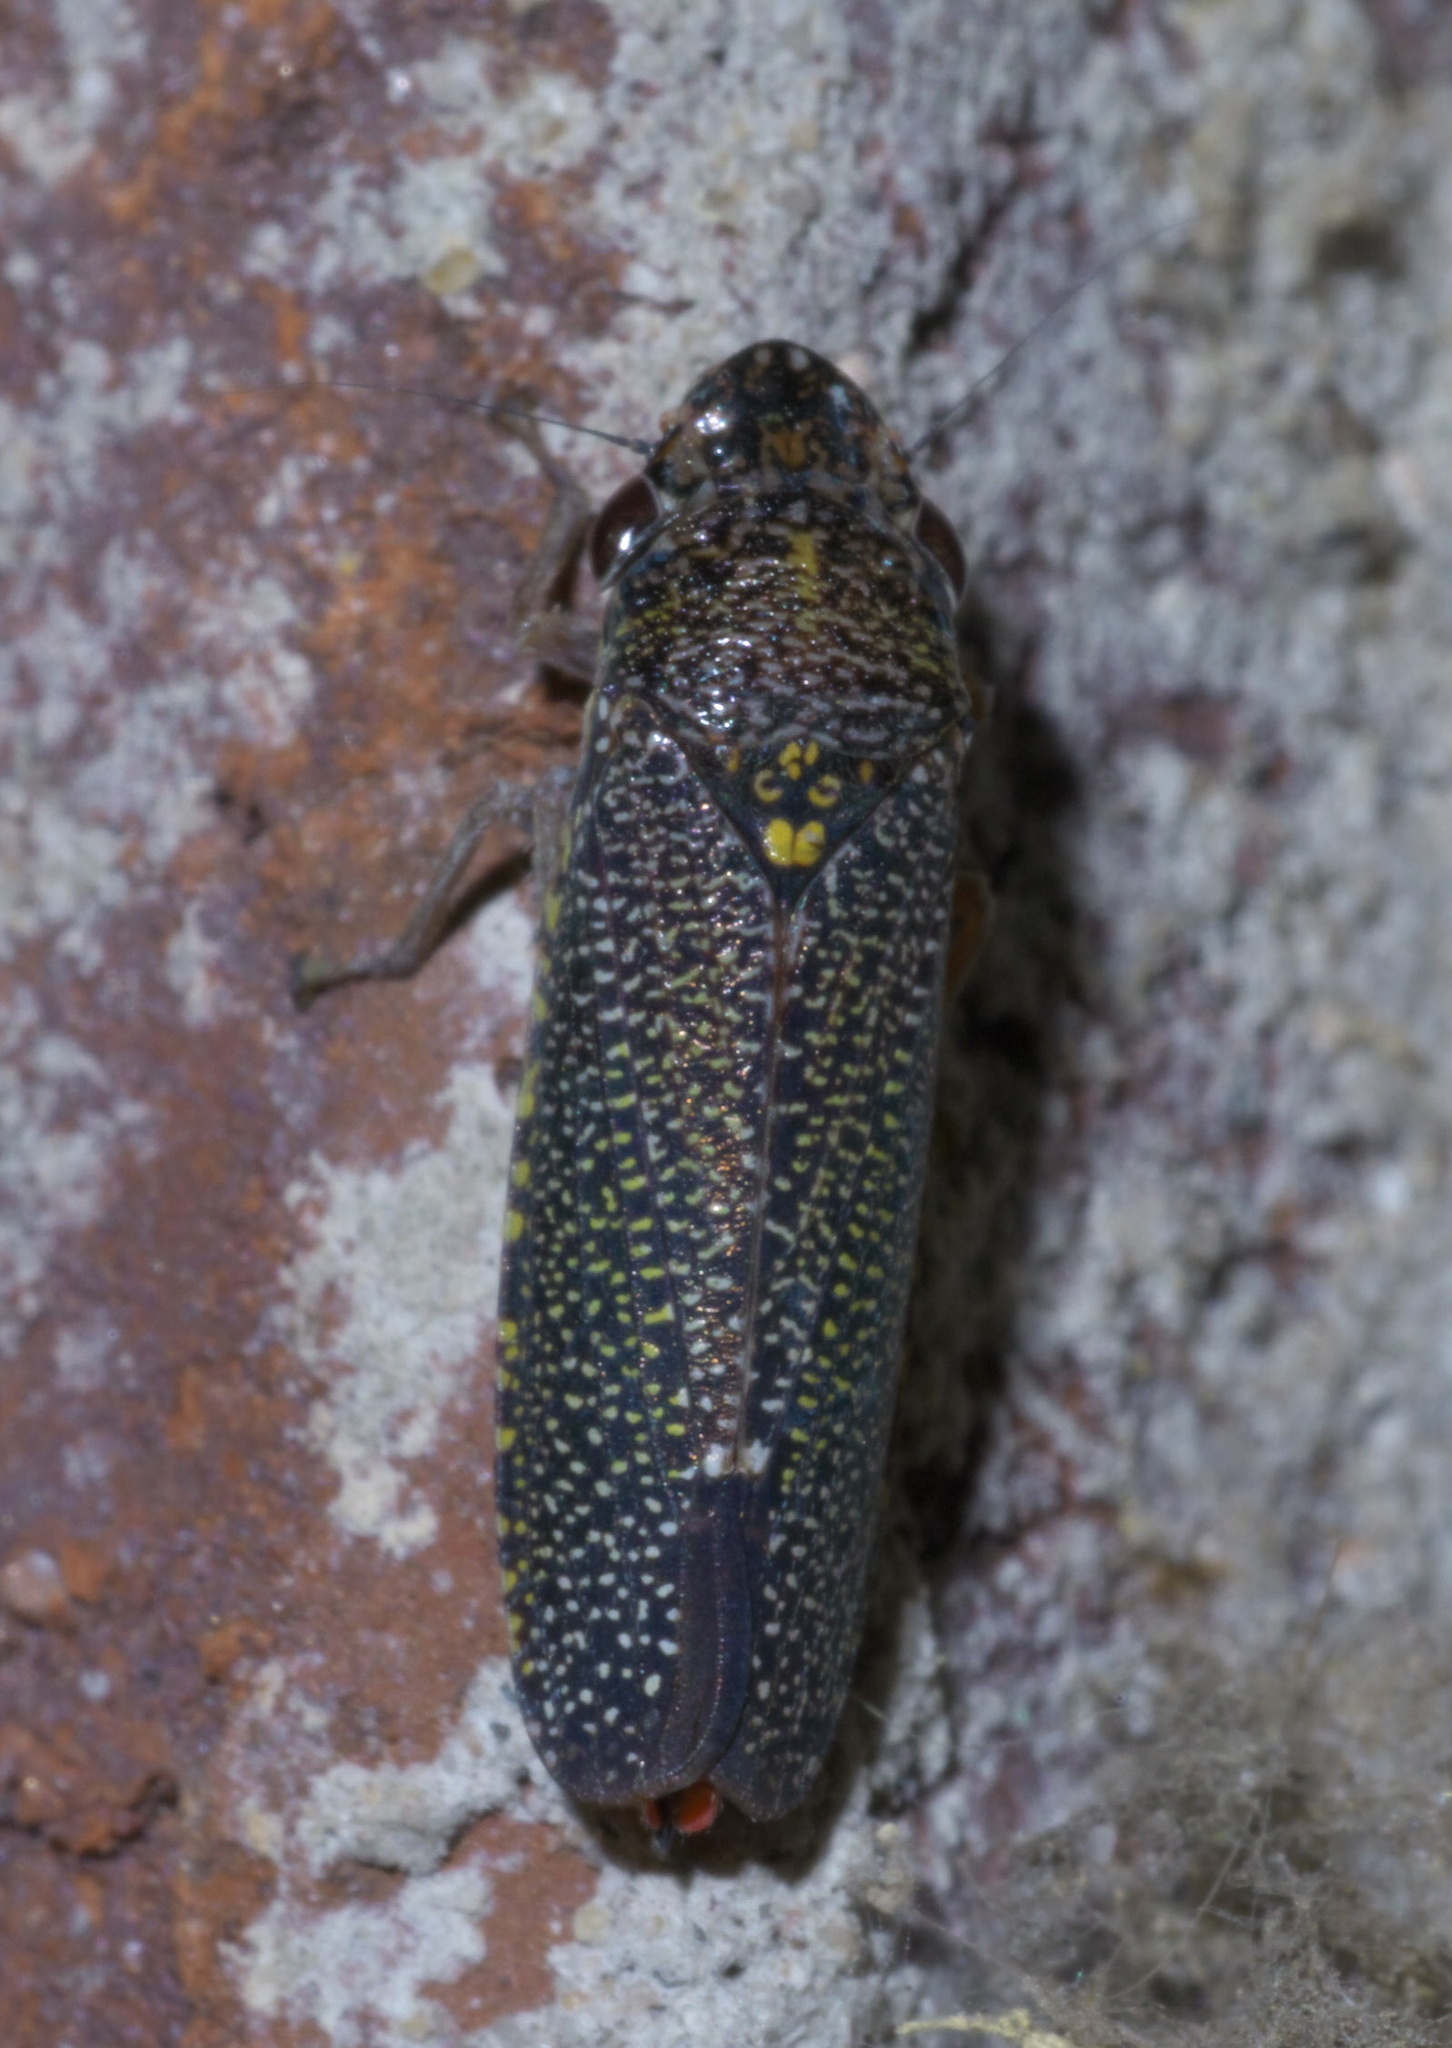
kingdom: Animalia
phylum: Arthropoda
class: Insecta
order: Hemiptera
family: Cicadellidae
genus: Paraulacizes
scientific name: Paraulacizes irrorata
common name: Speckled sharpshooter
